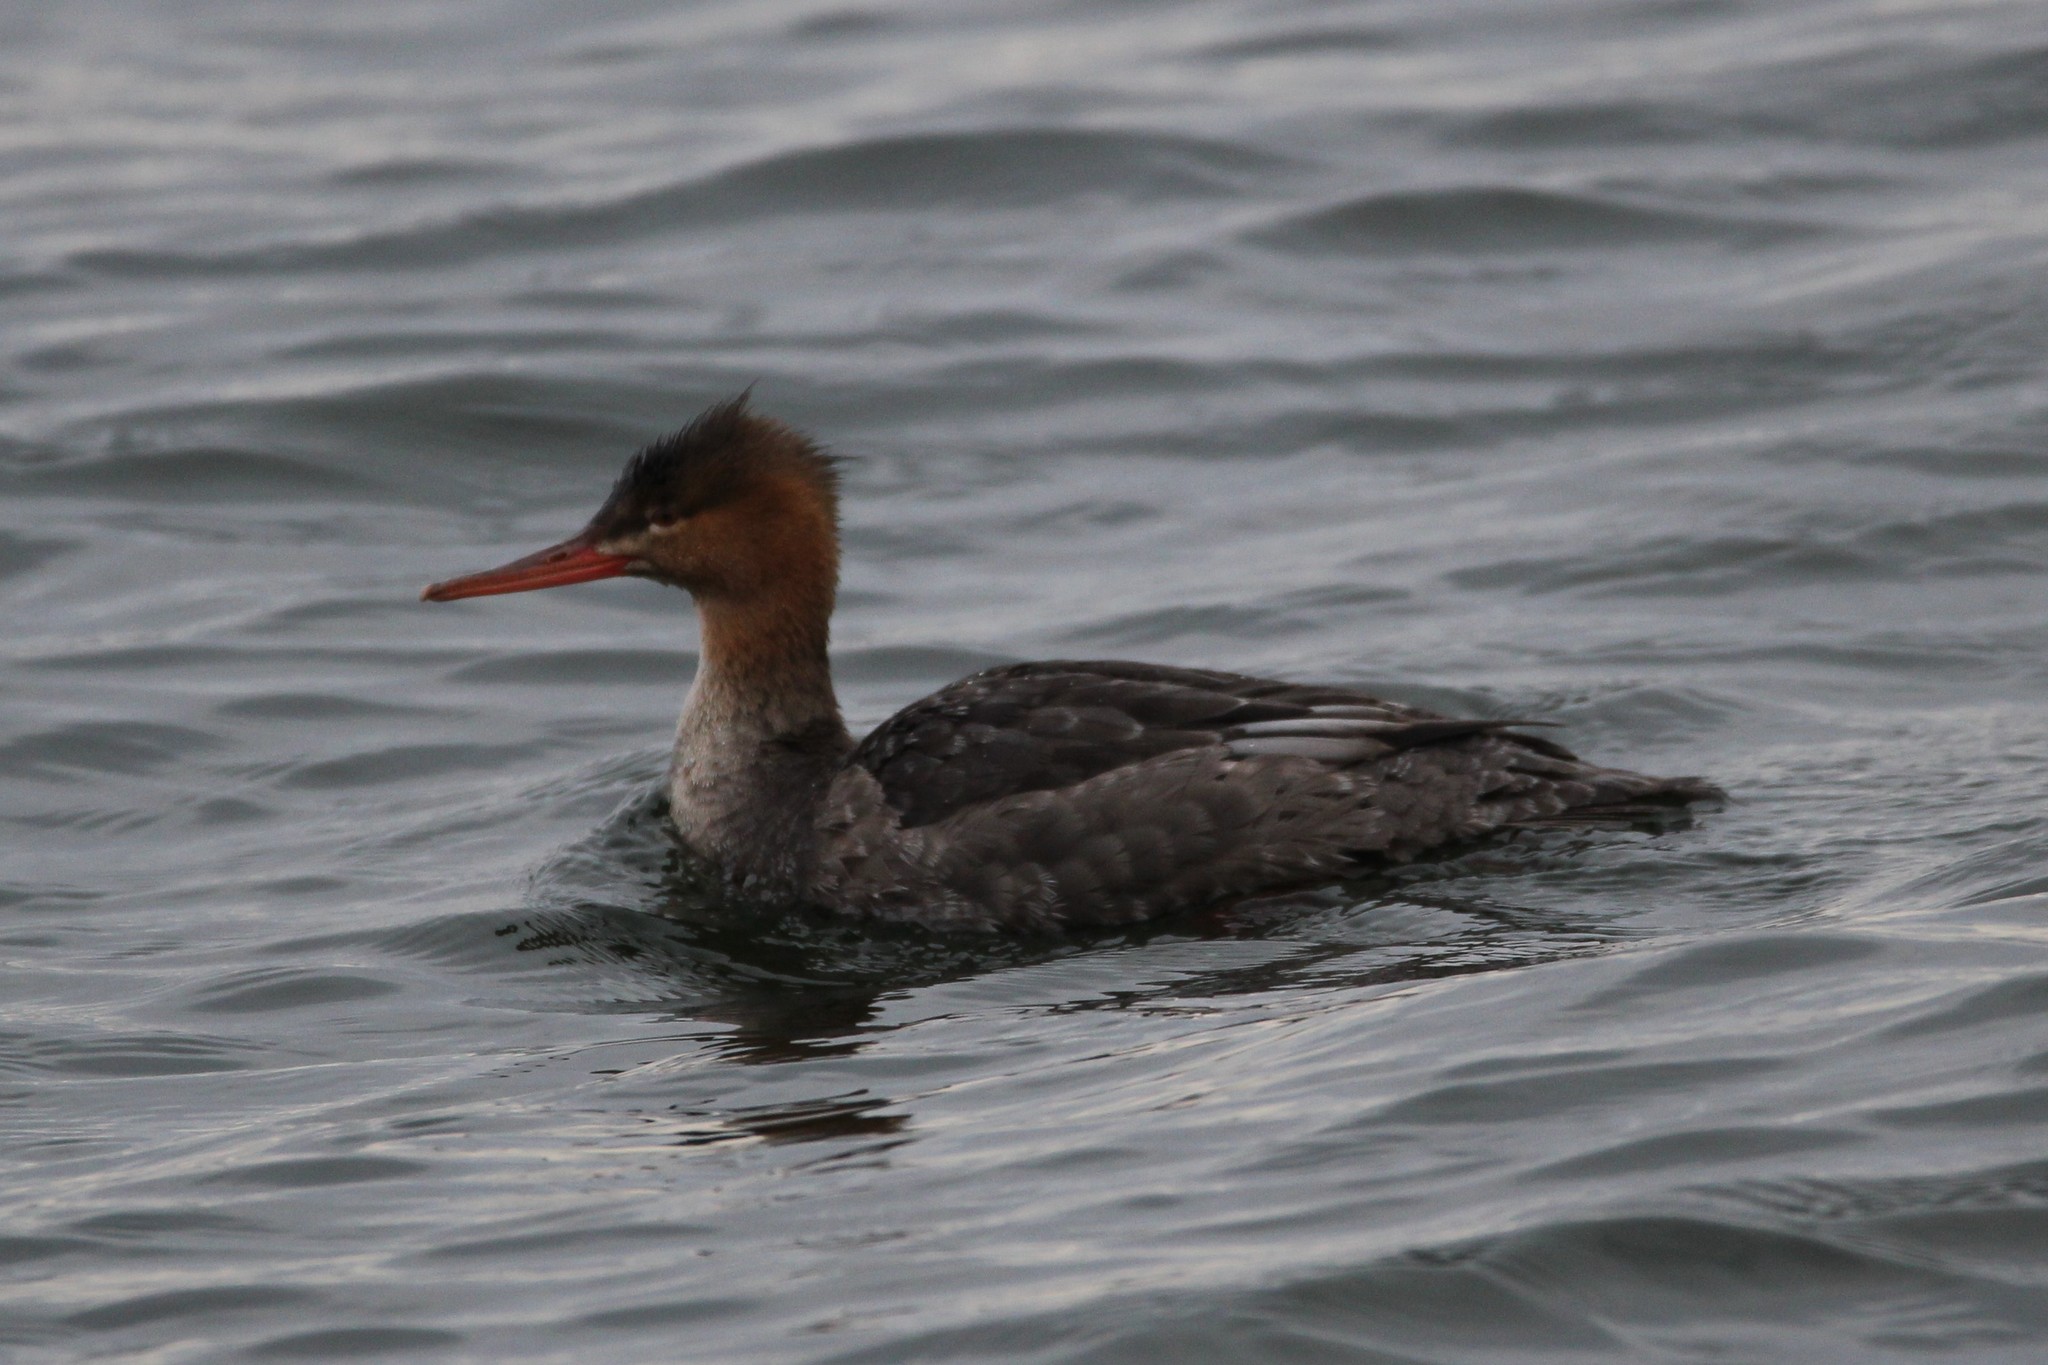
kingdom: Animalia
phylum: Chordata
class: Aves
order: Anseriformes
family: Anatidae
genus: Mergus
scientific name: Mergus serrator
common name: Red-breasted merganser
